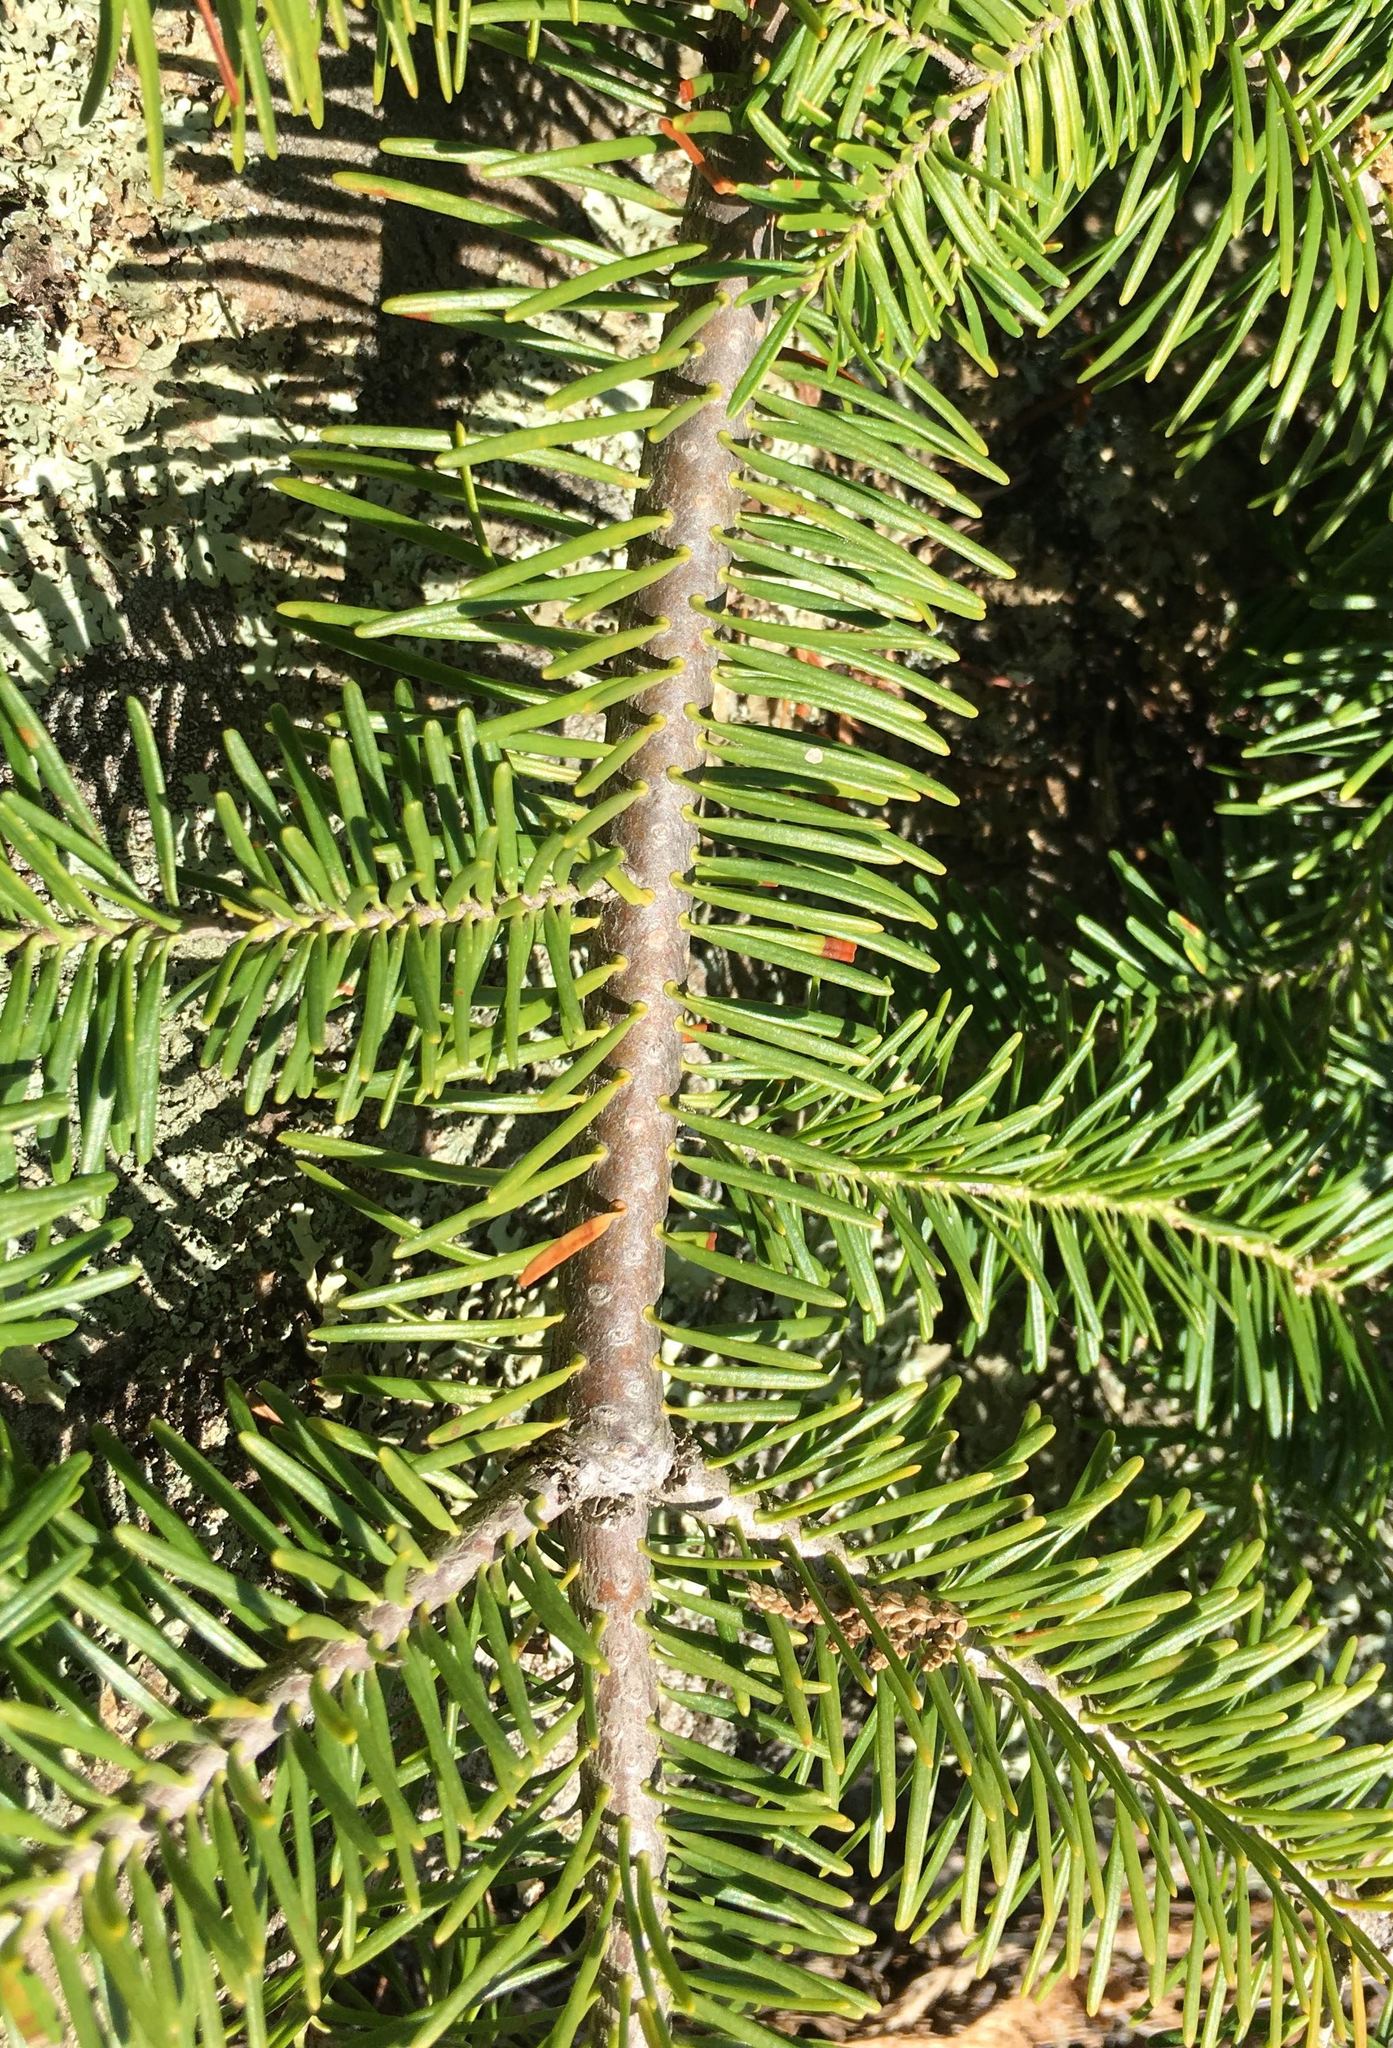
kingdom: Plantae
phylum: Tracheophyta
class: Pinopsida
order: Pinales
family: Pinaceae
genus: Abies
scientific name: Abies balsamea
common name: Balsam fir
